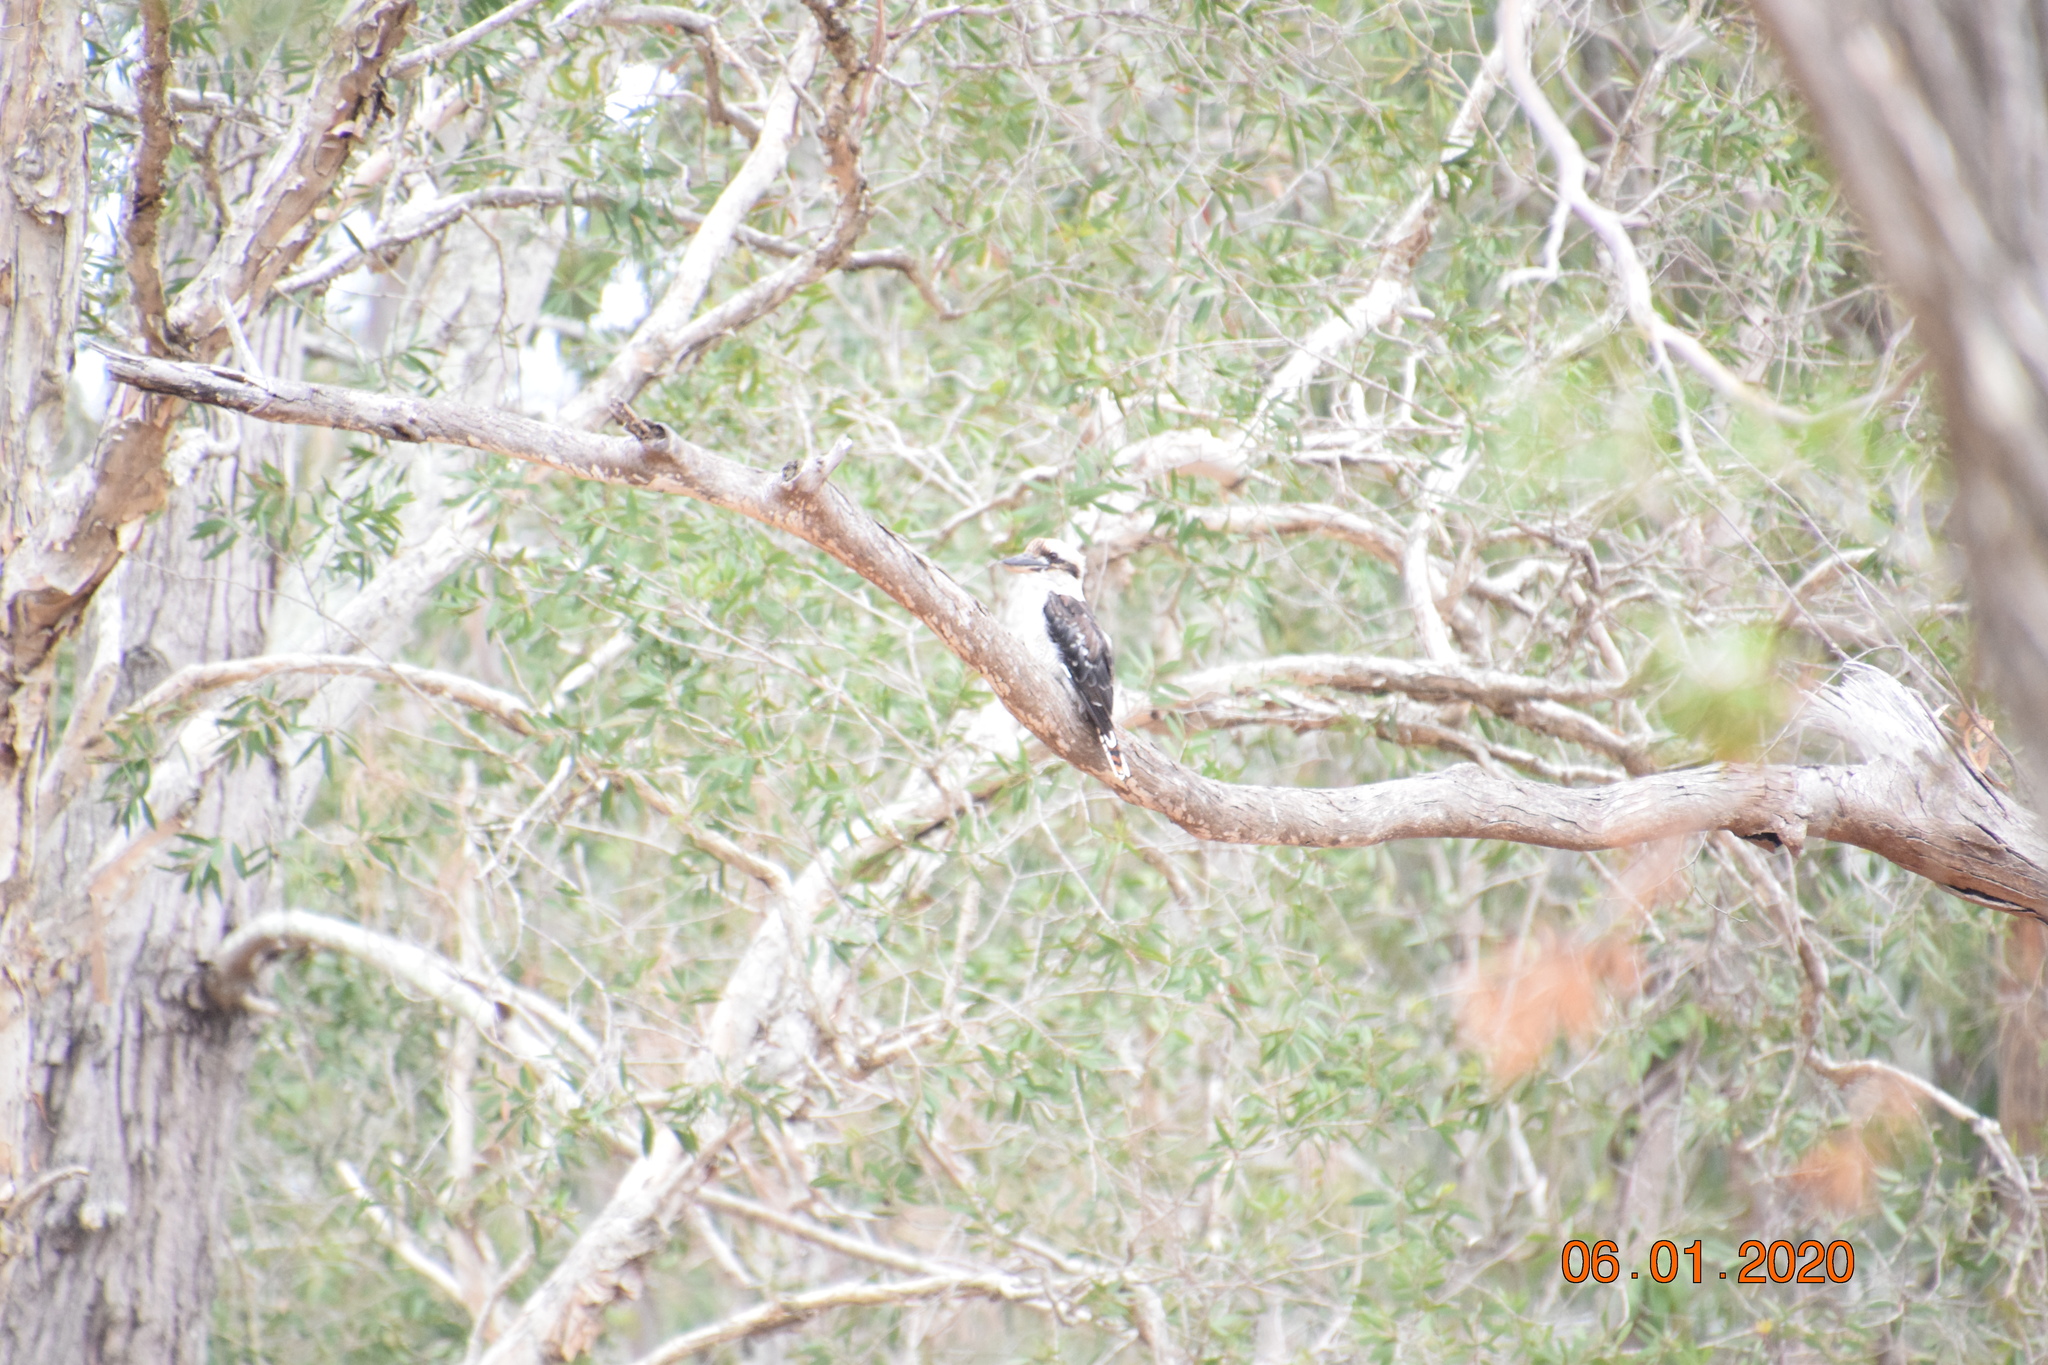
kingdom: Animalia
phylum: Chordata
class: Aves
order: Coraciiformes
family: Alcedinidae
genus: Dacelo
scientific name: Dacelo novaeguineae
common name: Laughing kookaburra
